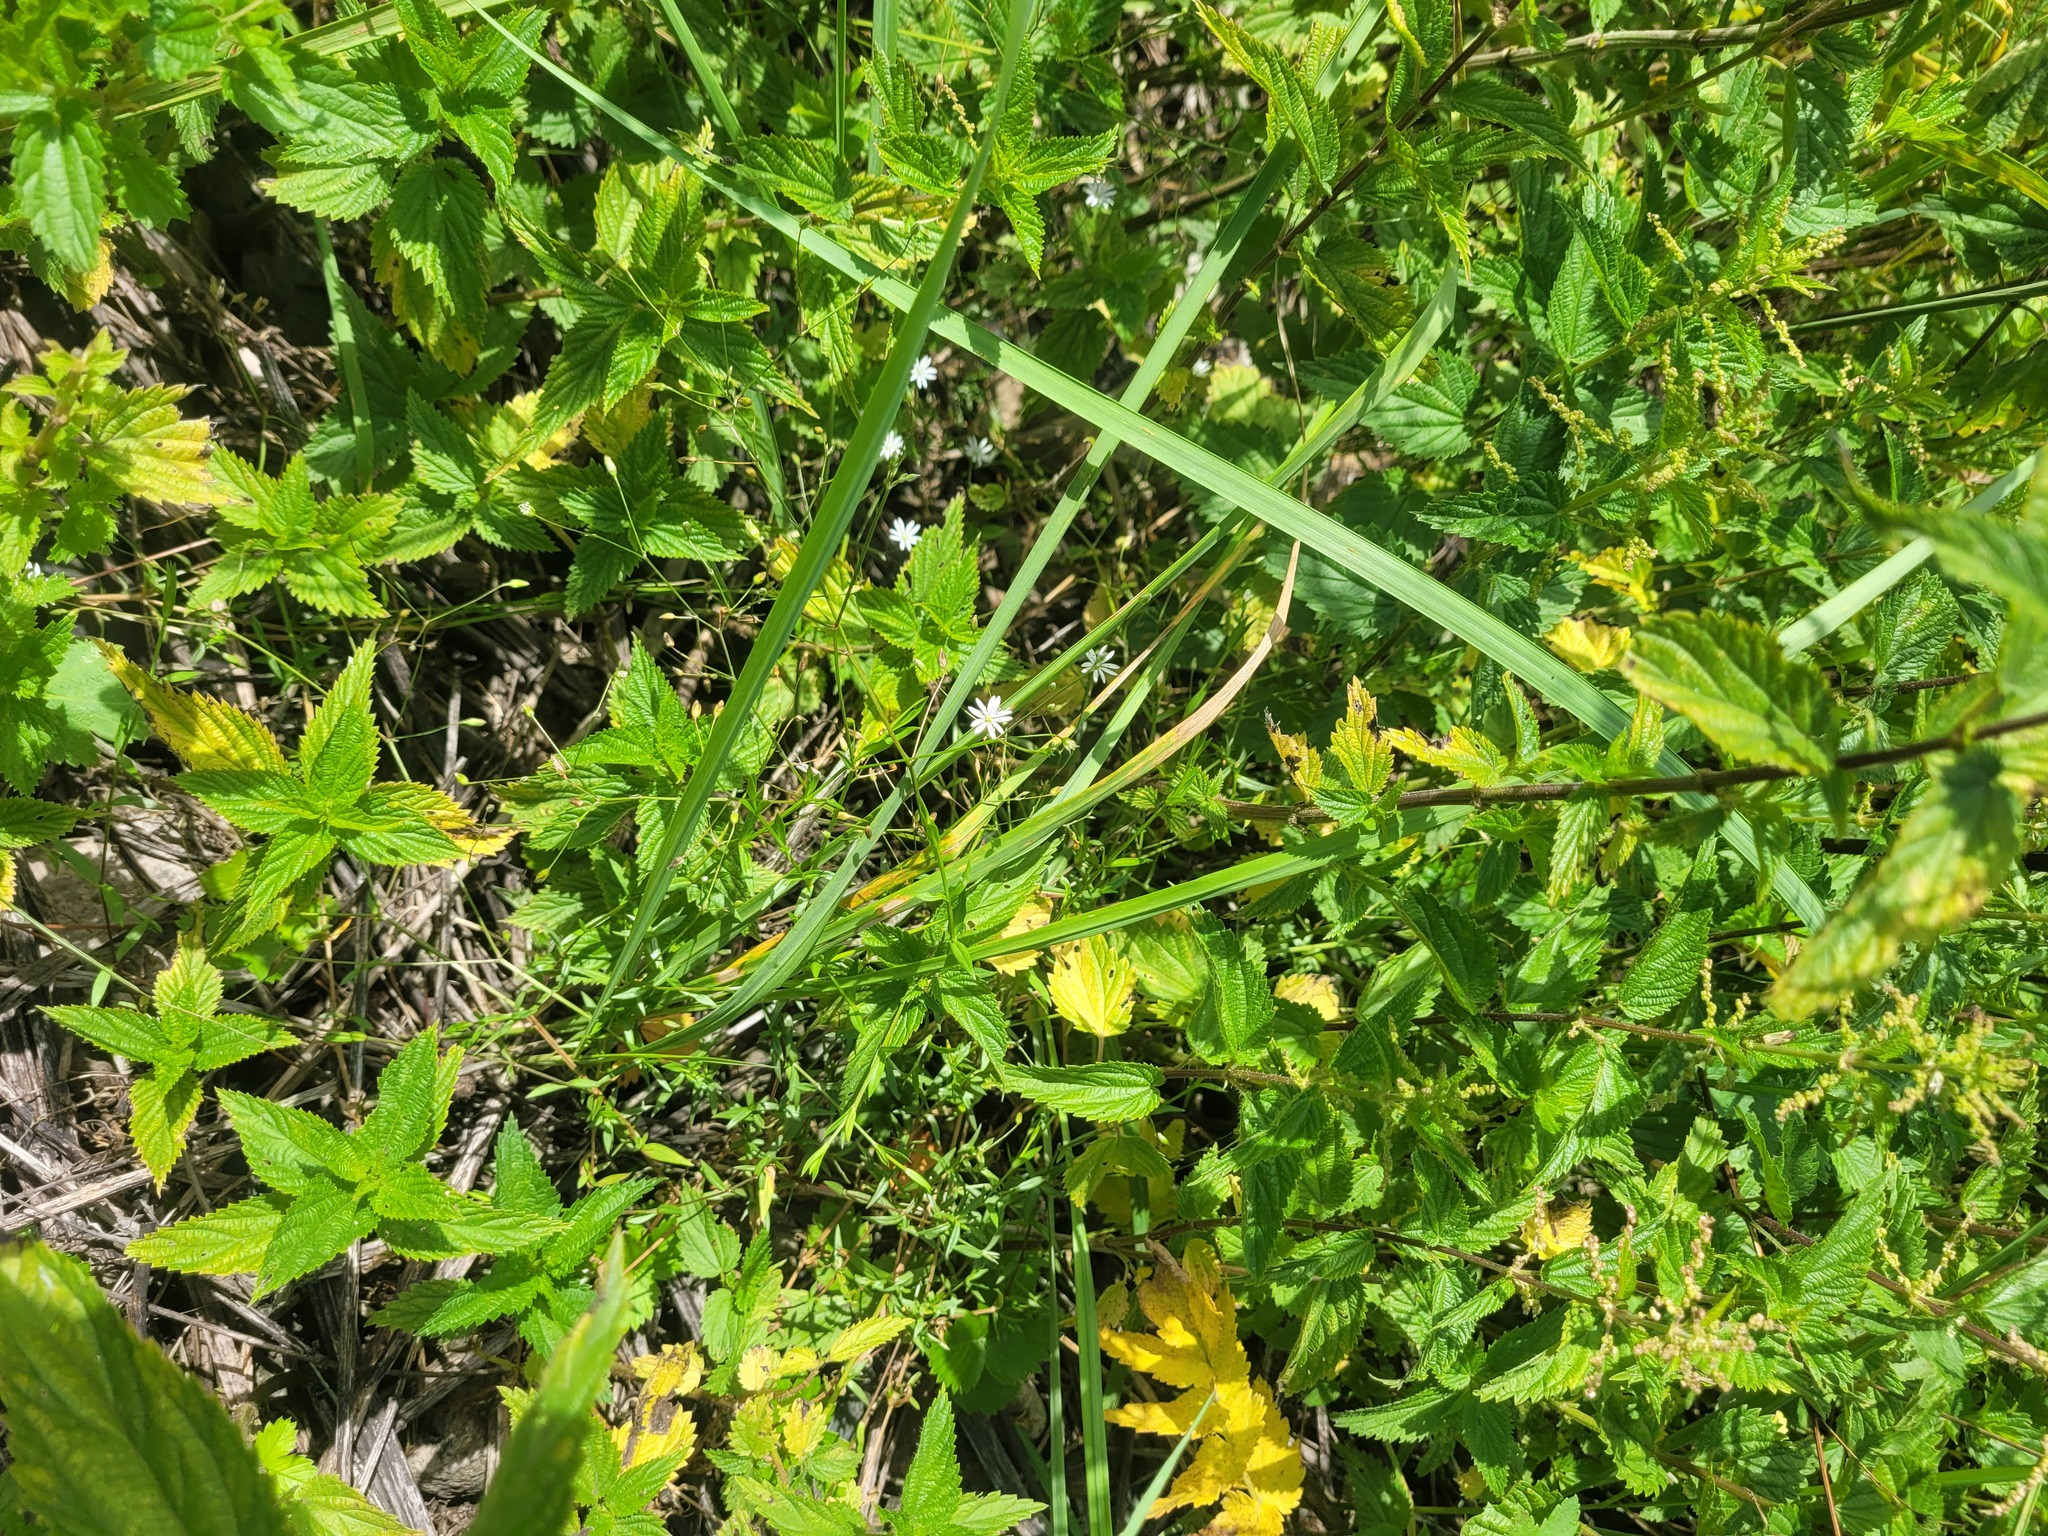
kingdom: Plantae
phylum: Tracheophyta
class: Magnoliopsida
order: Caryophyllales
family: Caryophyllaceae
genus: Stellaria
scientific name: Stellaria graminea
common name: Grass-like starwort
